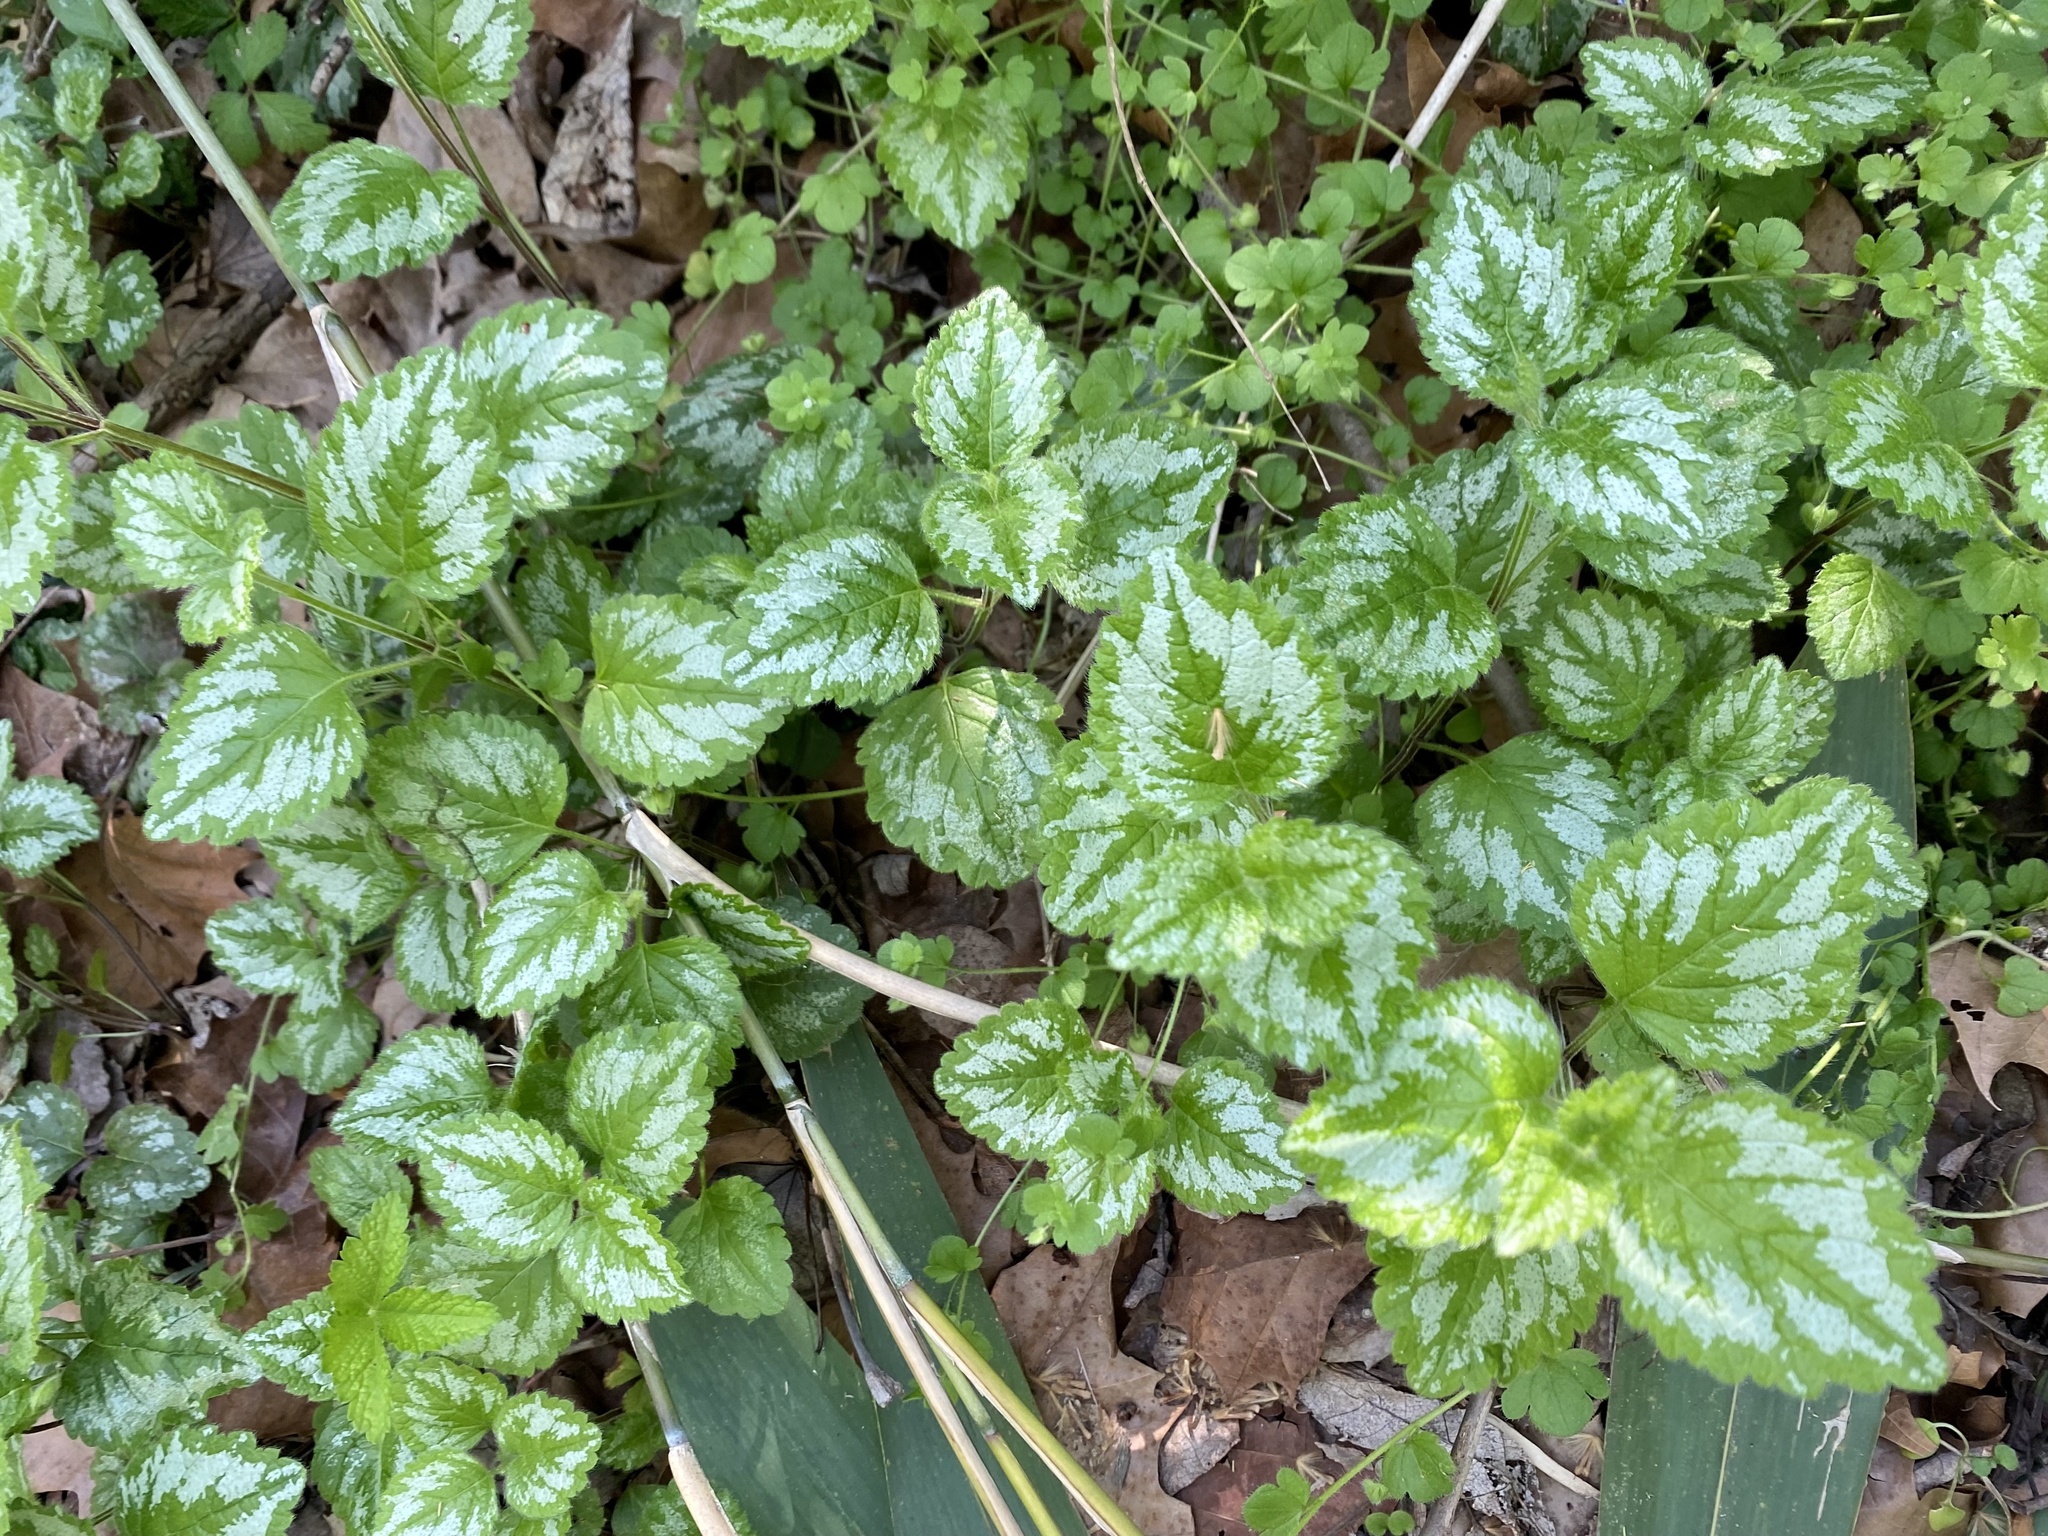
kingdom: Plantae
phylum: Tracheophyta
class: Magnoliopsida
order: Lamiales
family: Lamiaceae
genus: Lamium
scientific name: Lamium galeobdolon
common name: Yellow archangel
